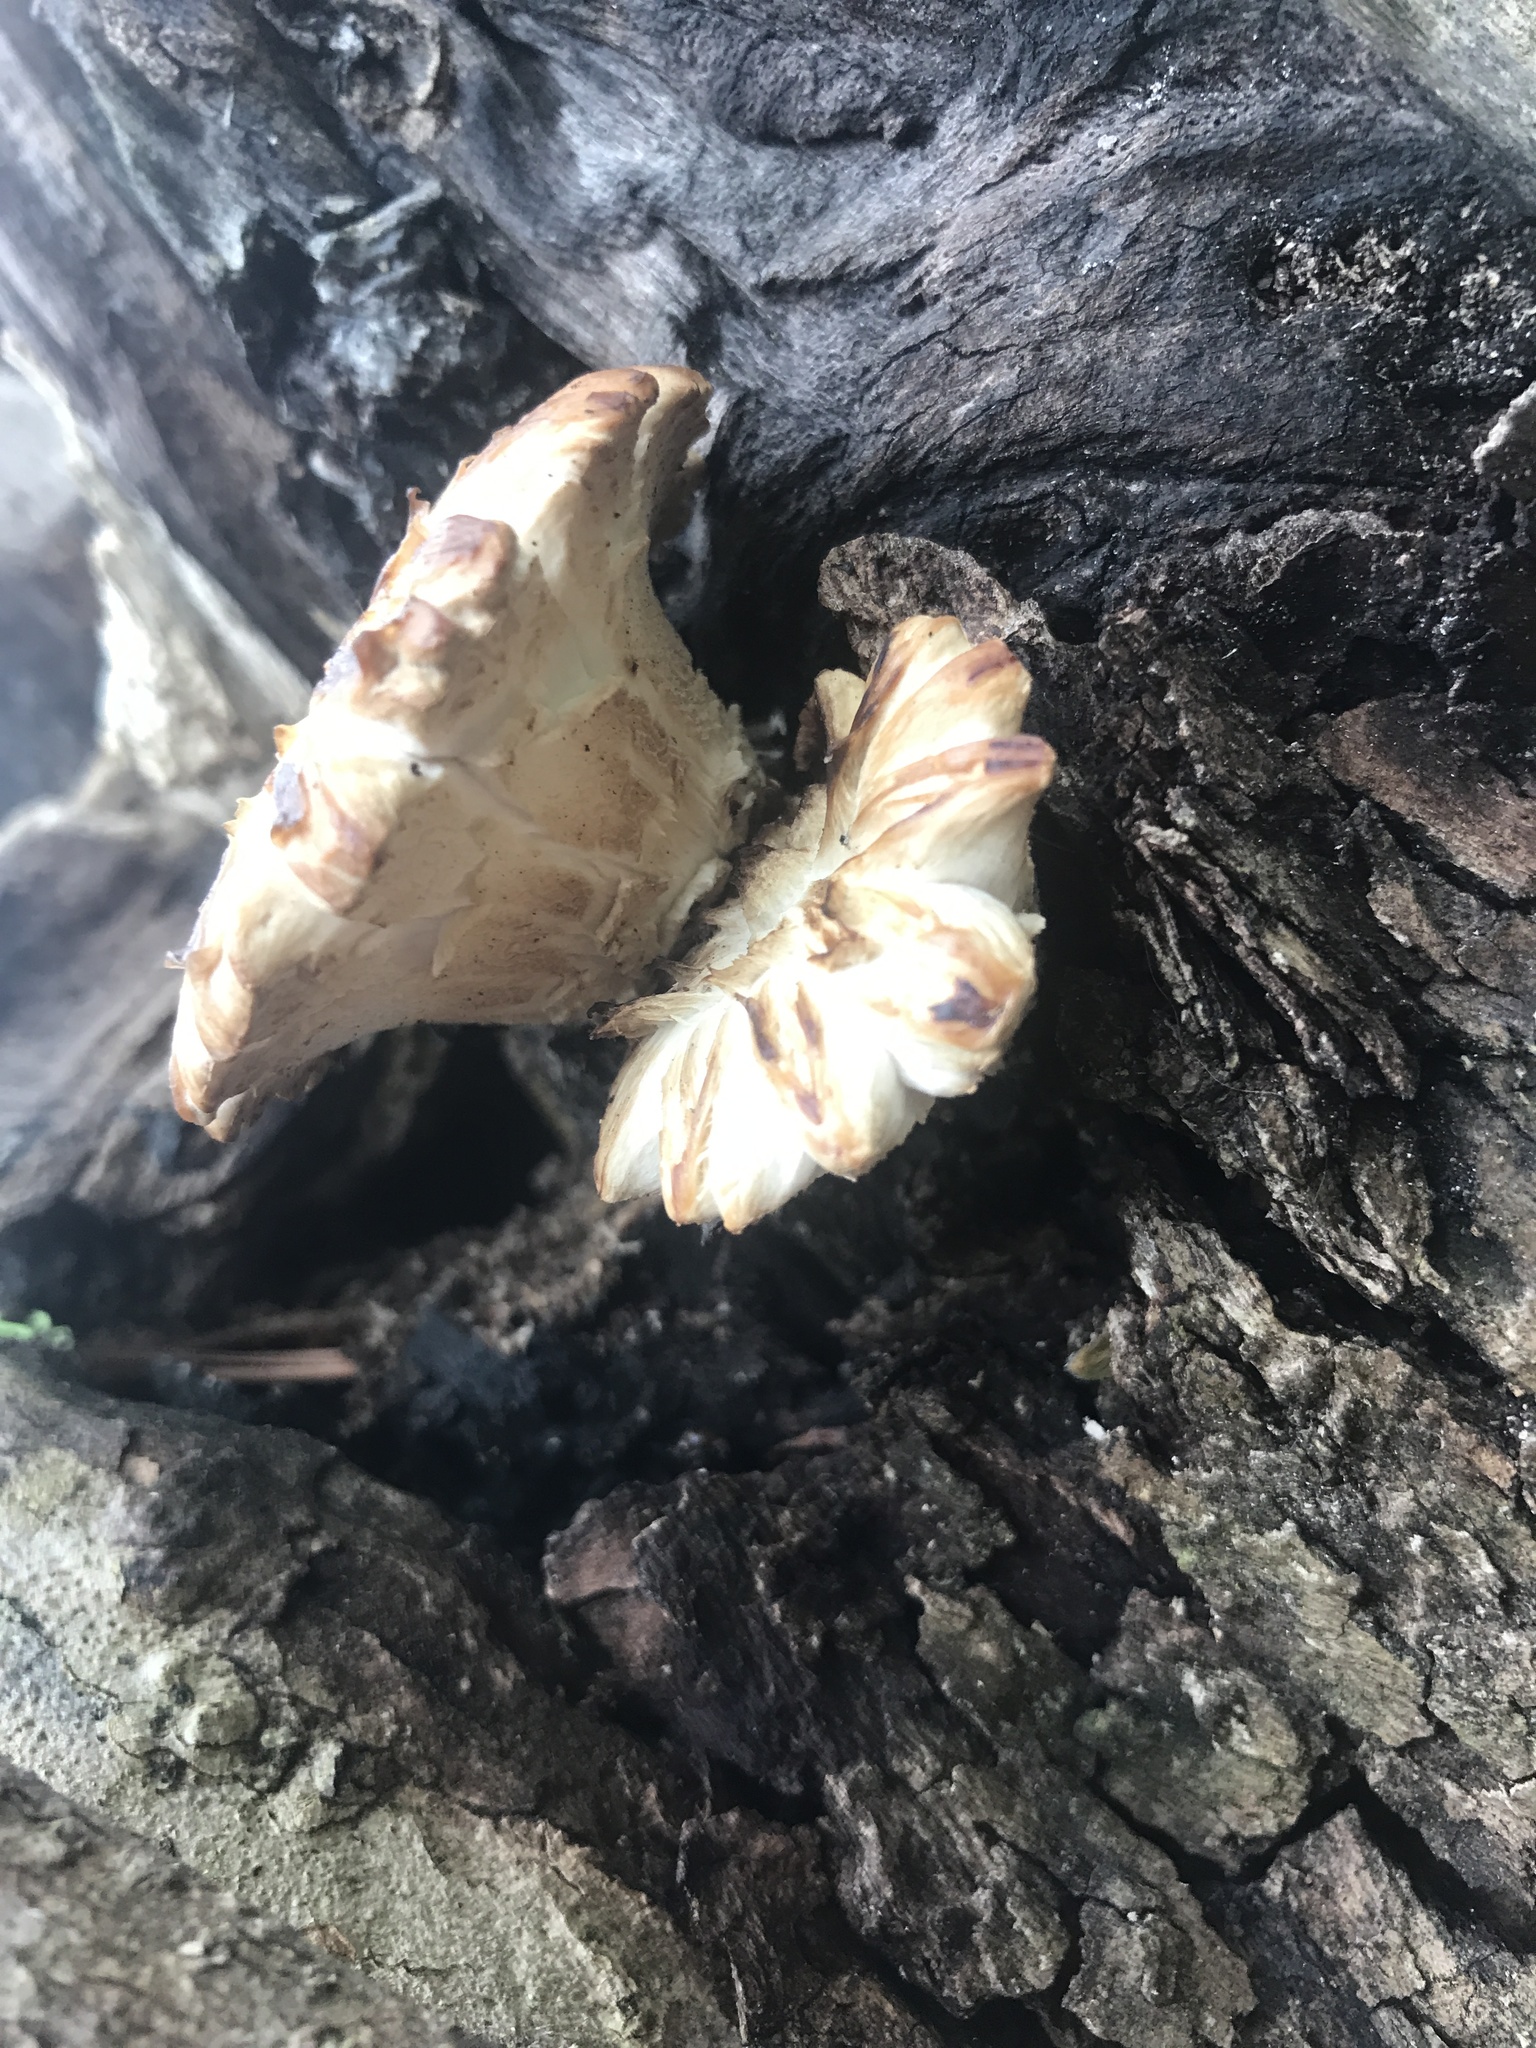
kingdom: Fungi
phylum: Basidiomycota
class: Agaricomycetes
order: Polyporales
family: Polyporaceae
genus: Cerioporus
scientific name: Cerioporus squamosus
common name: Dryad's saddle
